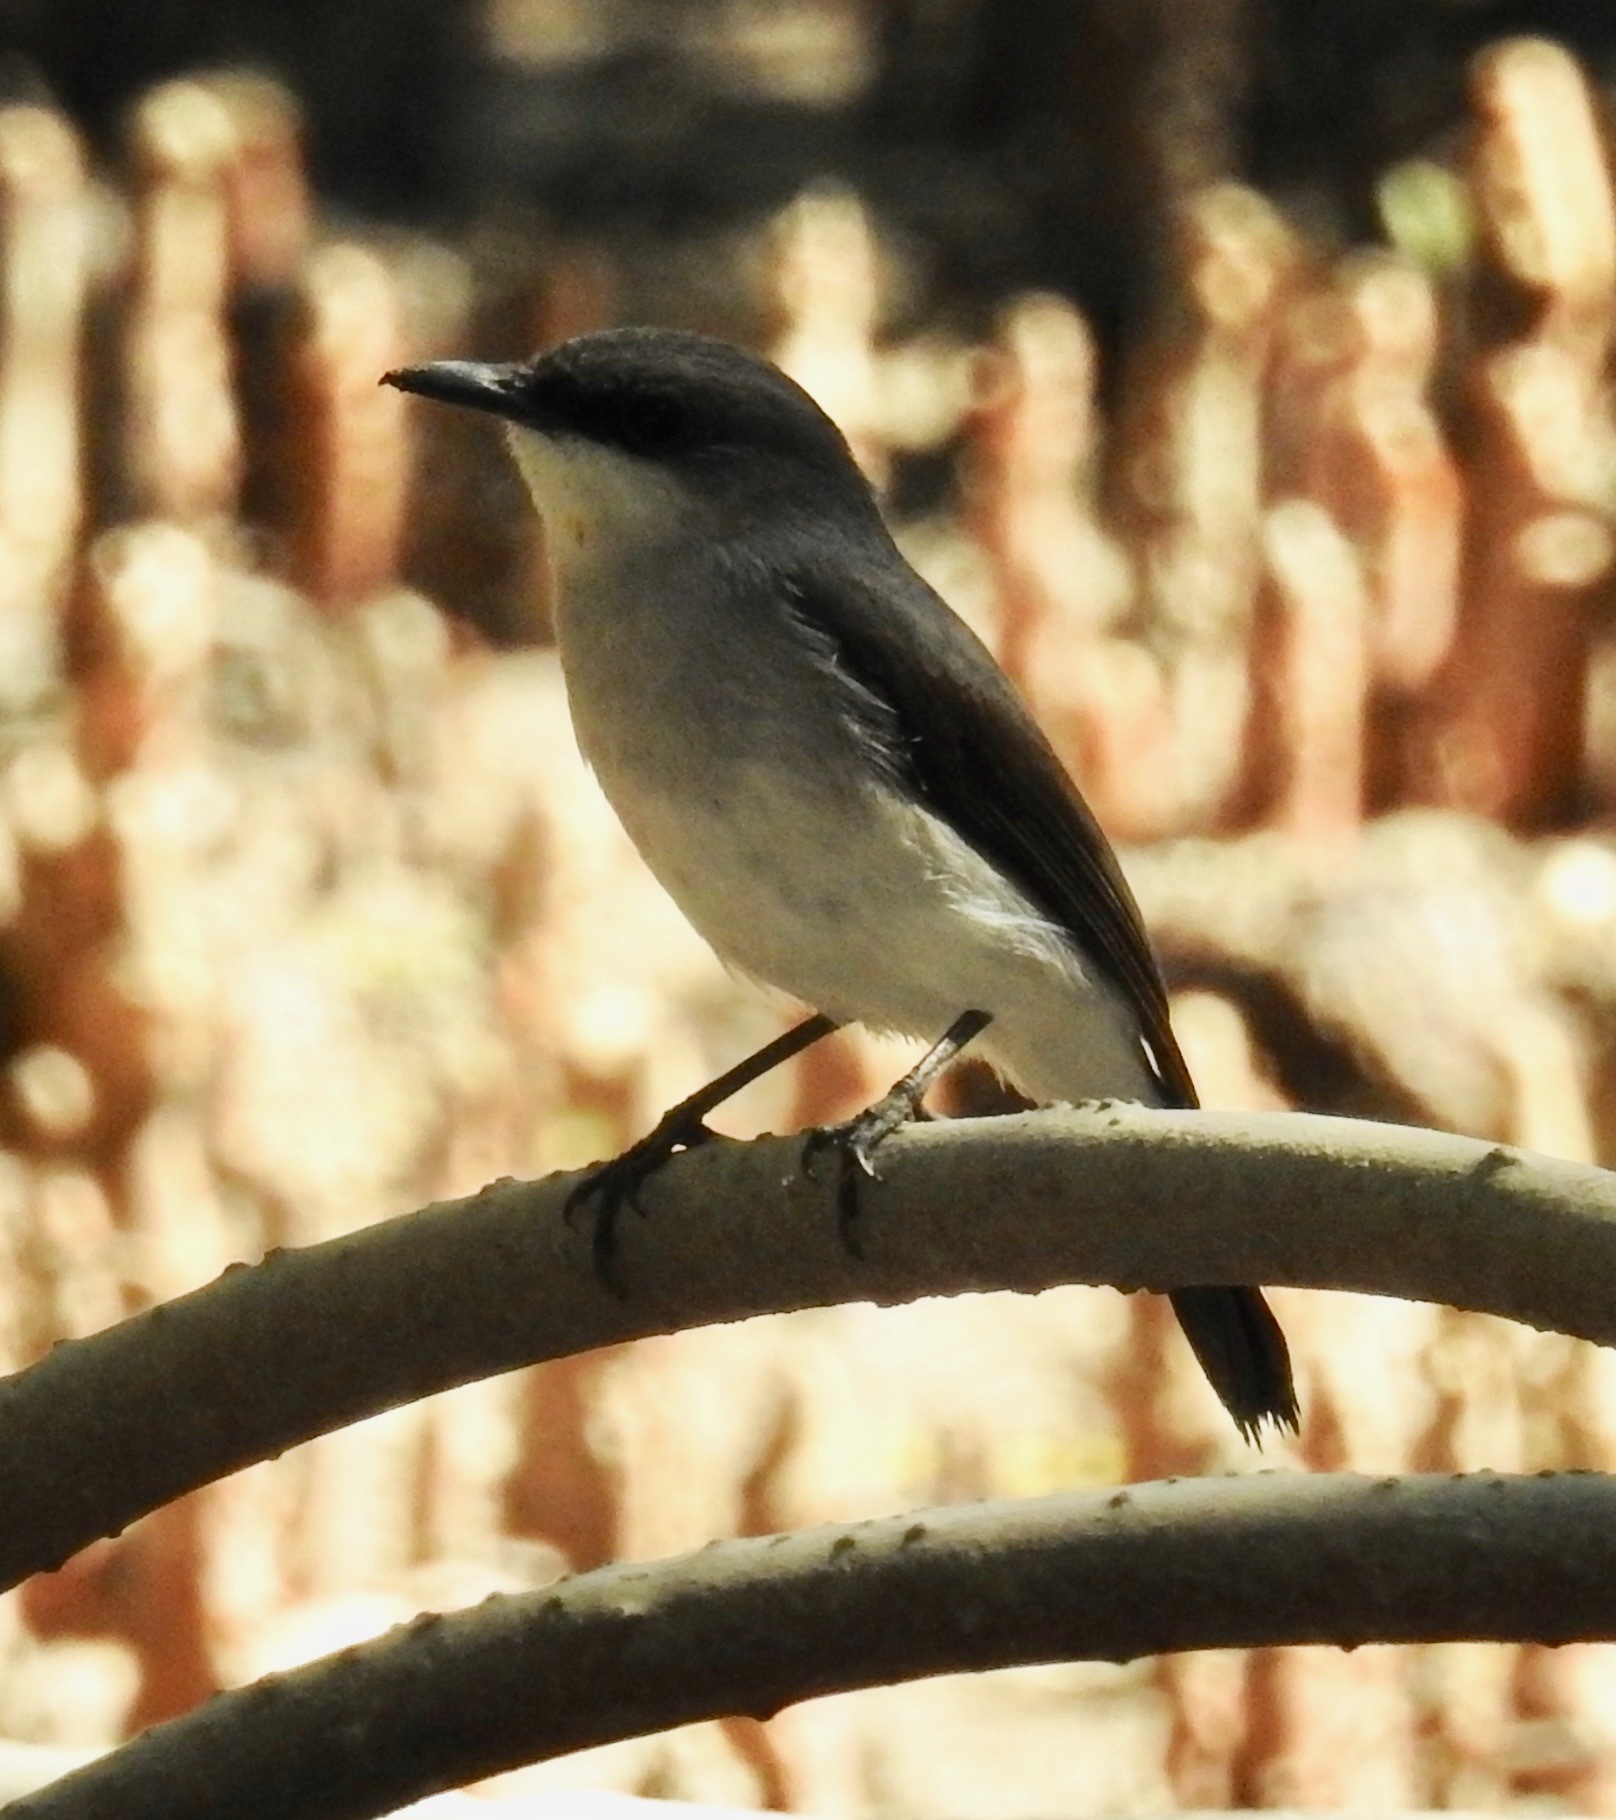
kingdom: Animalia
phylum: Chordata
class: Aves
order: Passeriformes
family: Petroicidae
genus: Melanodryas
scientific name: Melanodryas
